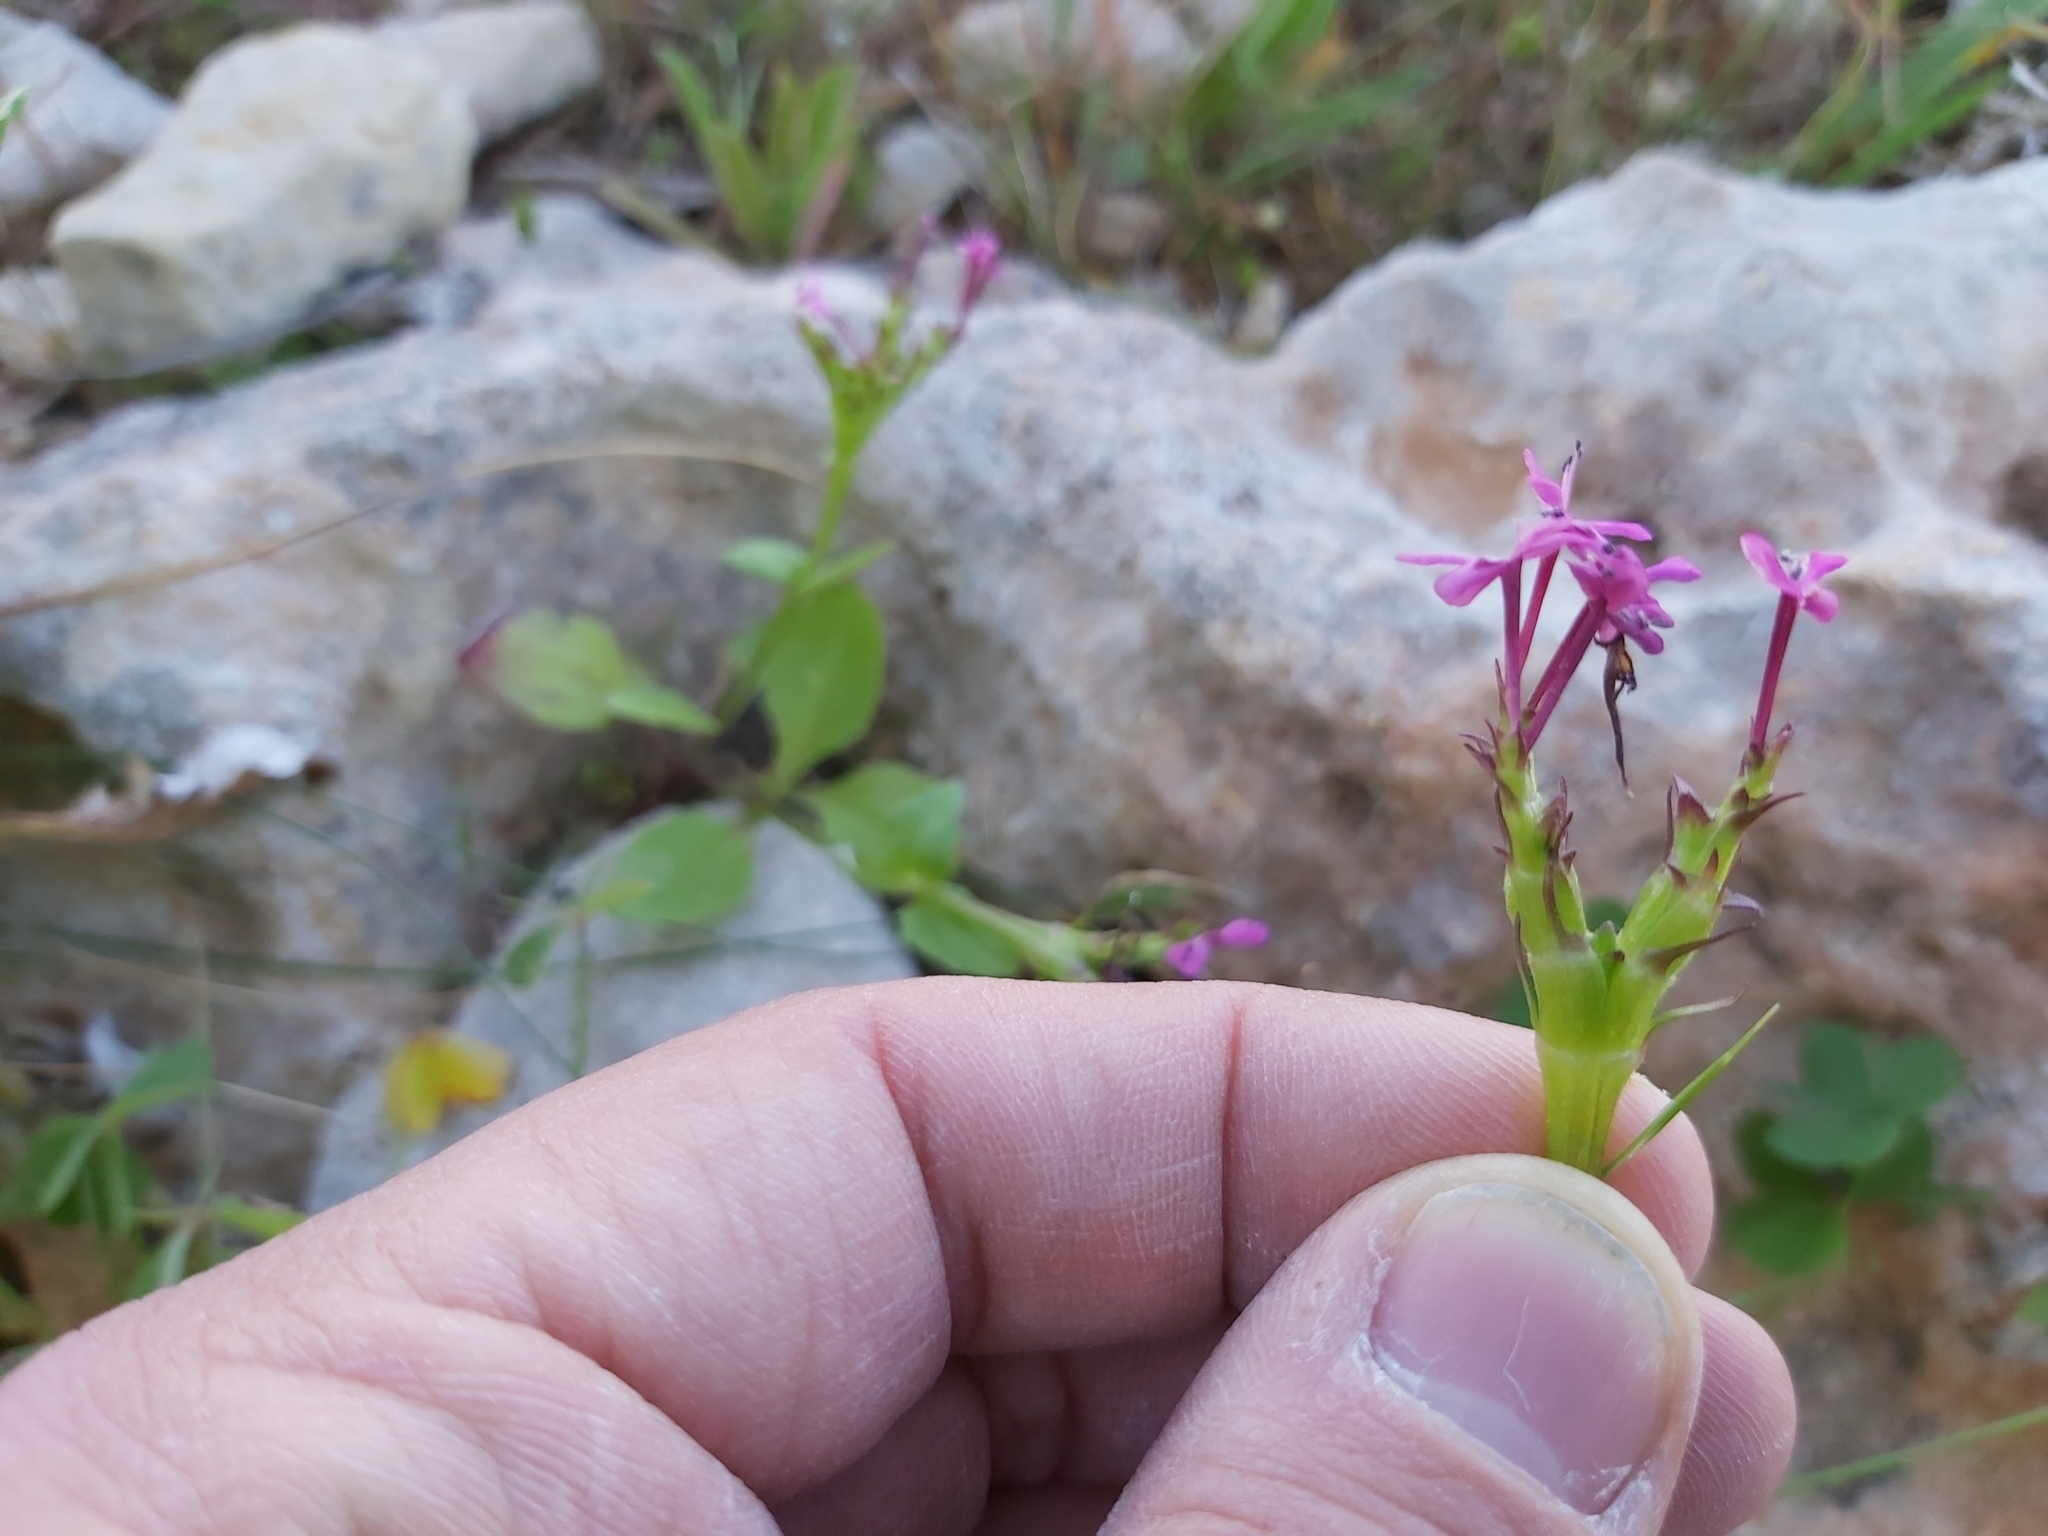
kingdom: Plantae
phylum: Tracheophyta
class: Magnoliopsida
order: Dipsacales
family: Caprifoliaceae
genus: Fedia
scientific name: Fedia graciliflora
